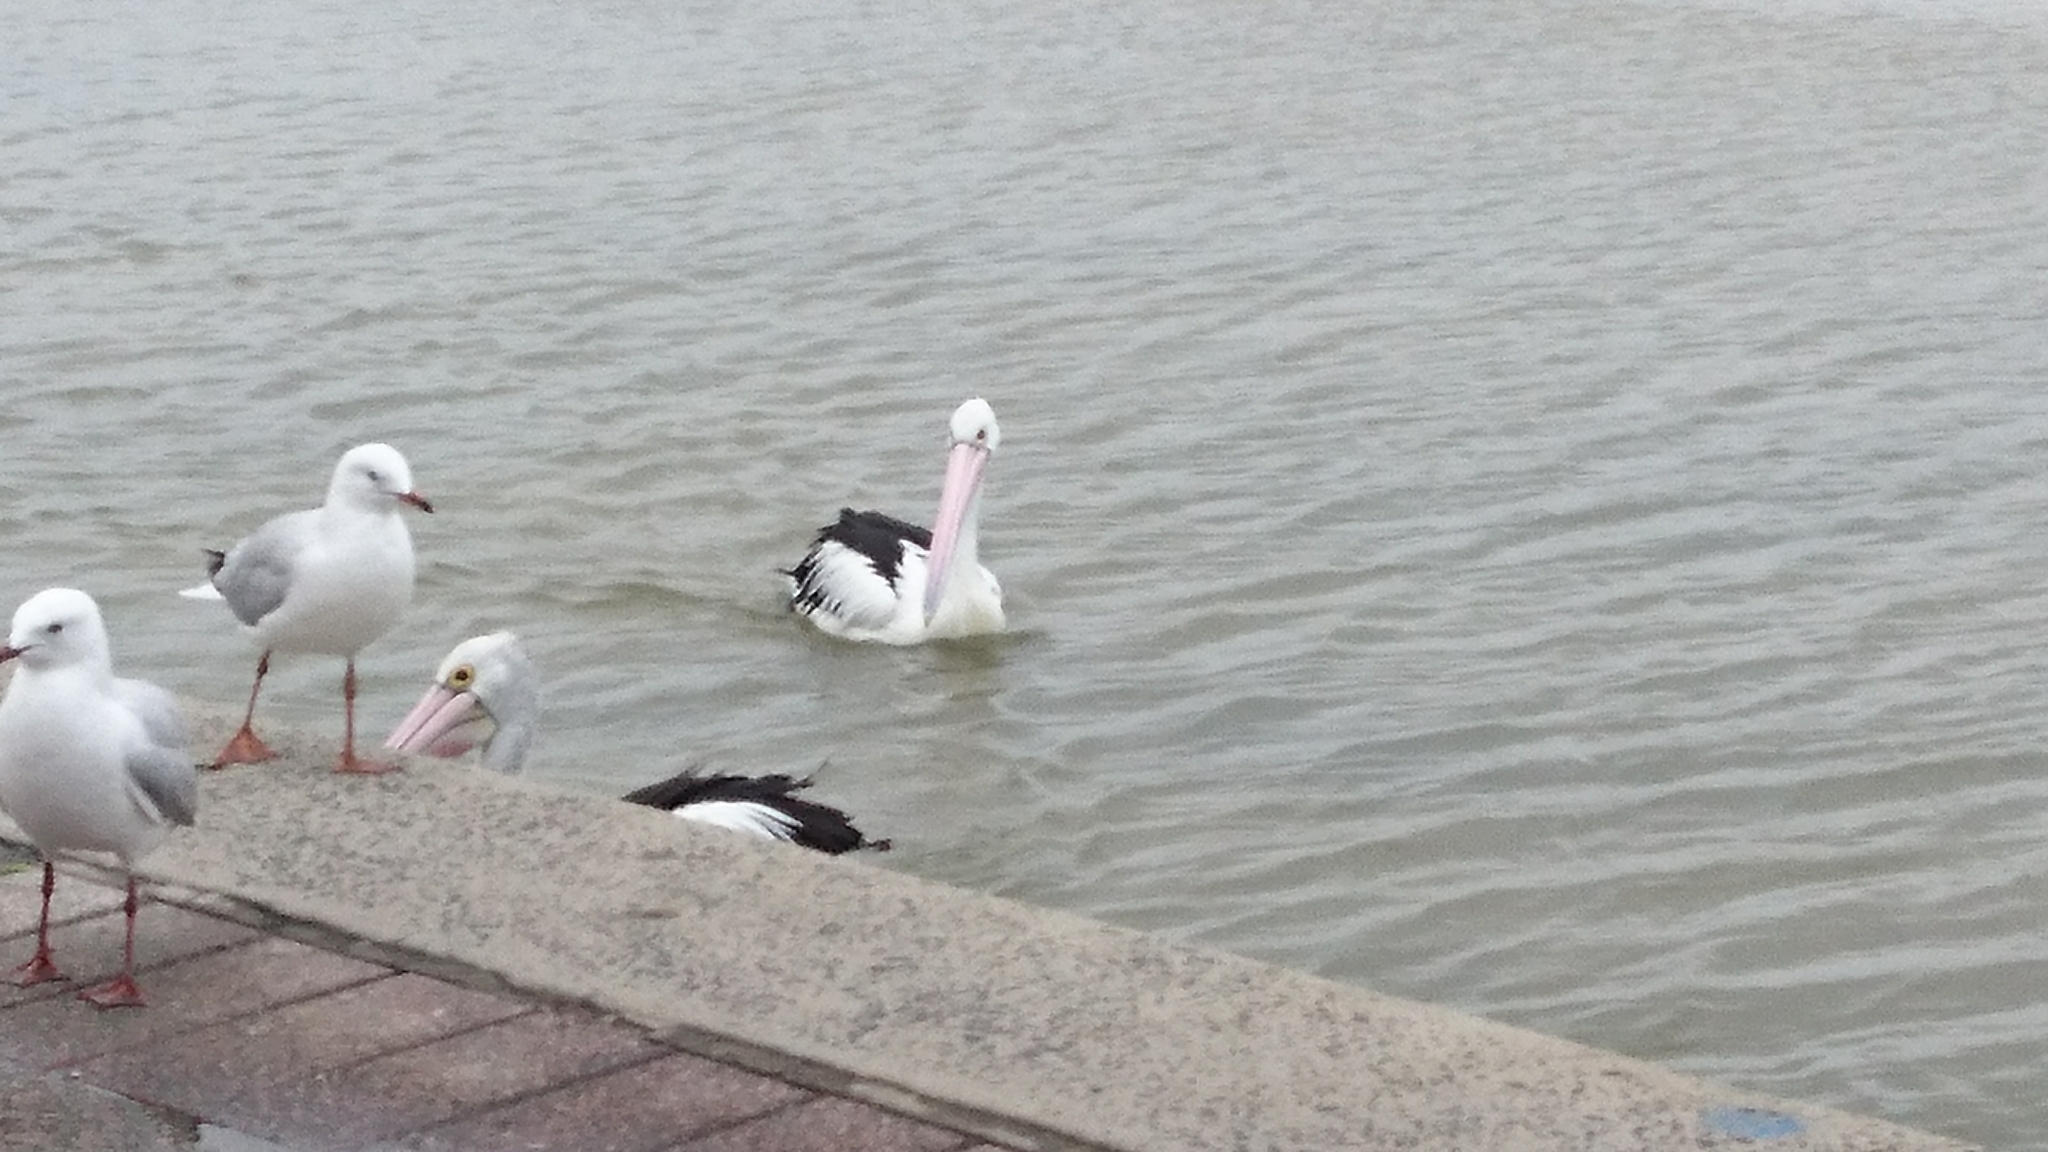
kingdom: Animalia
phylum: Chordata
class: Aves
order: Pelecaniformes
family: Pelecanidae
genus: Pelecanus
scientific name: Pelecanus conspicillatus
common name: Australian pelican
